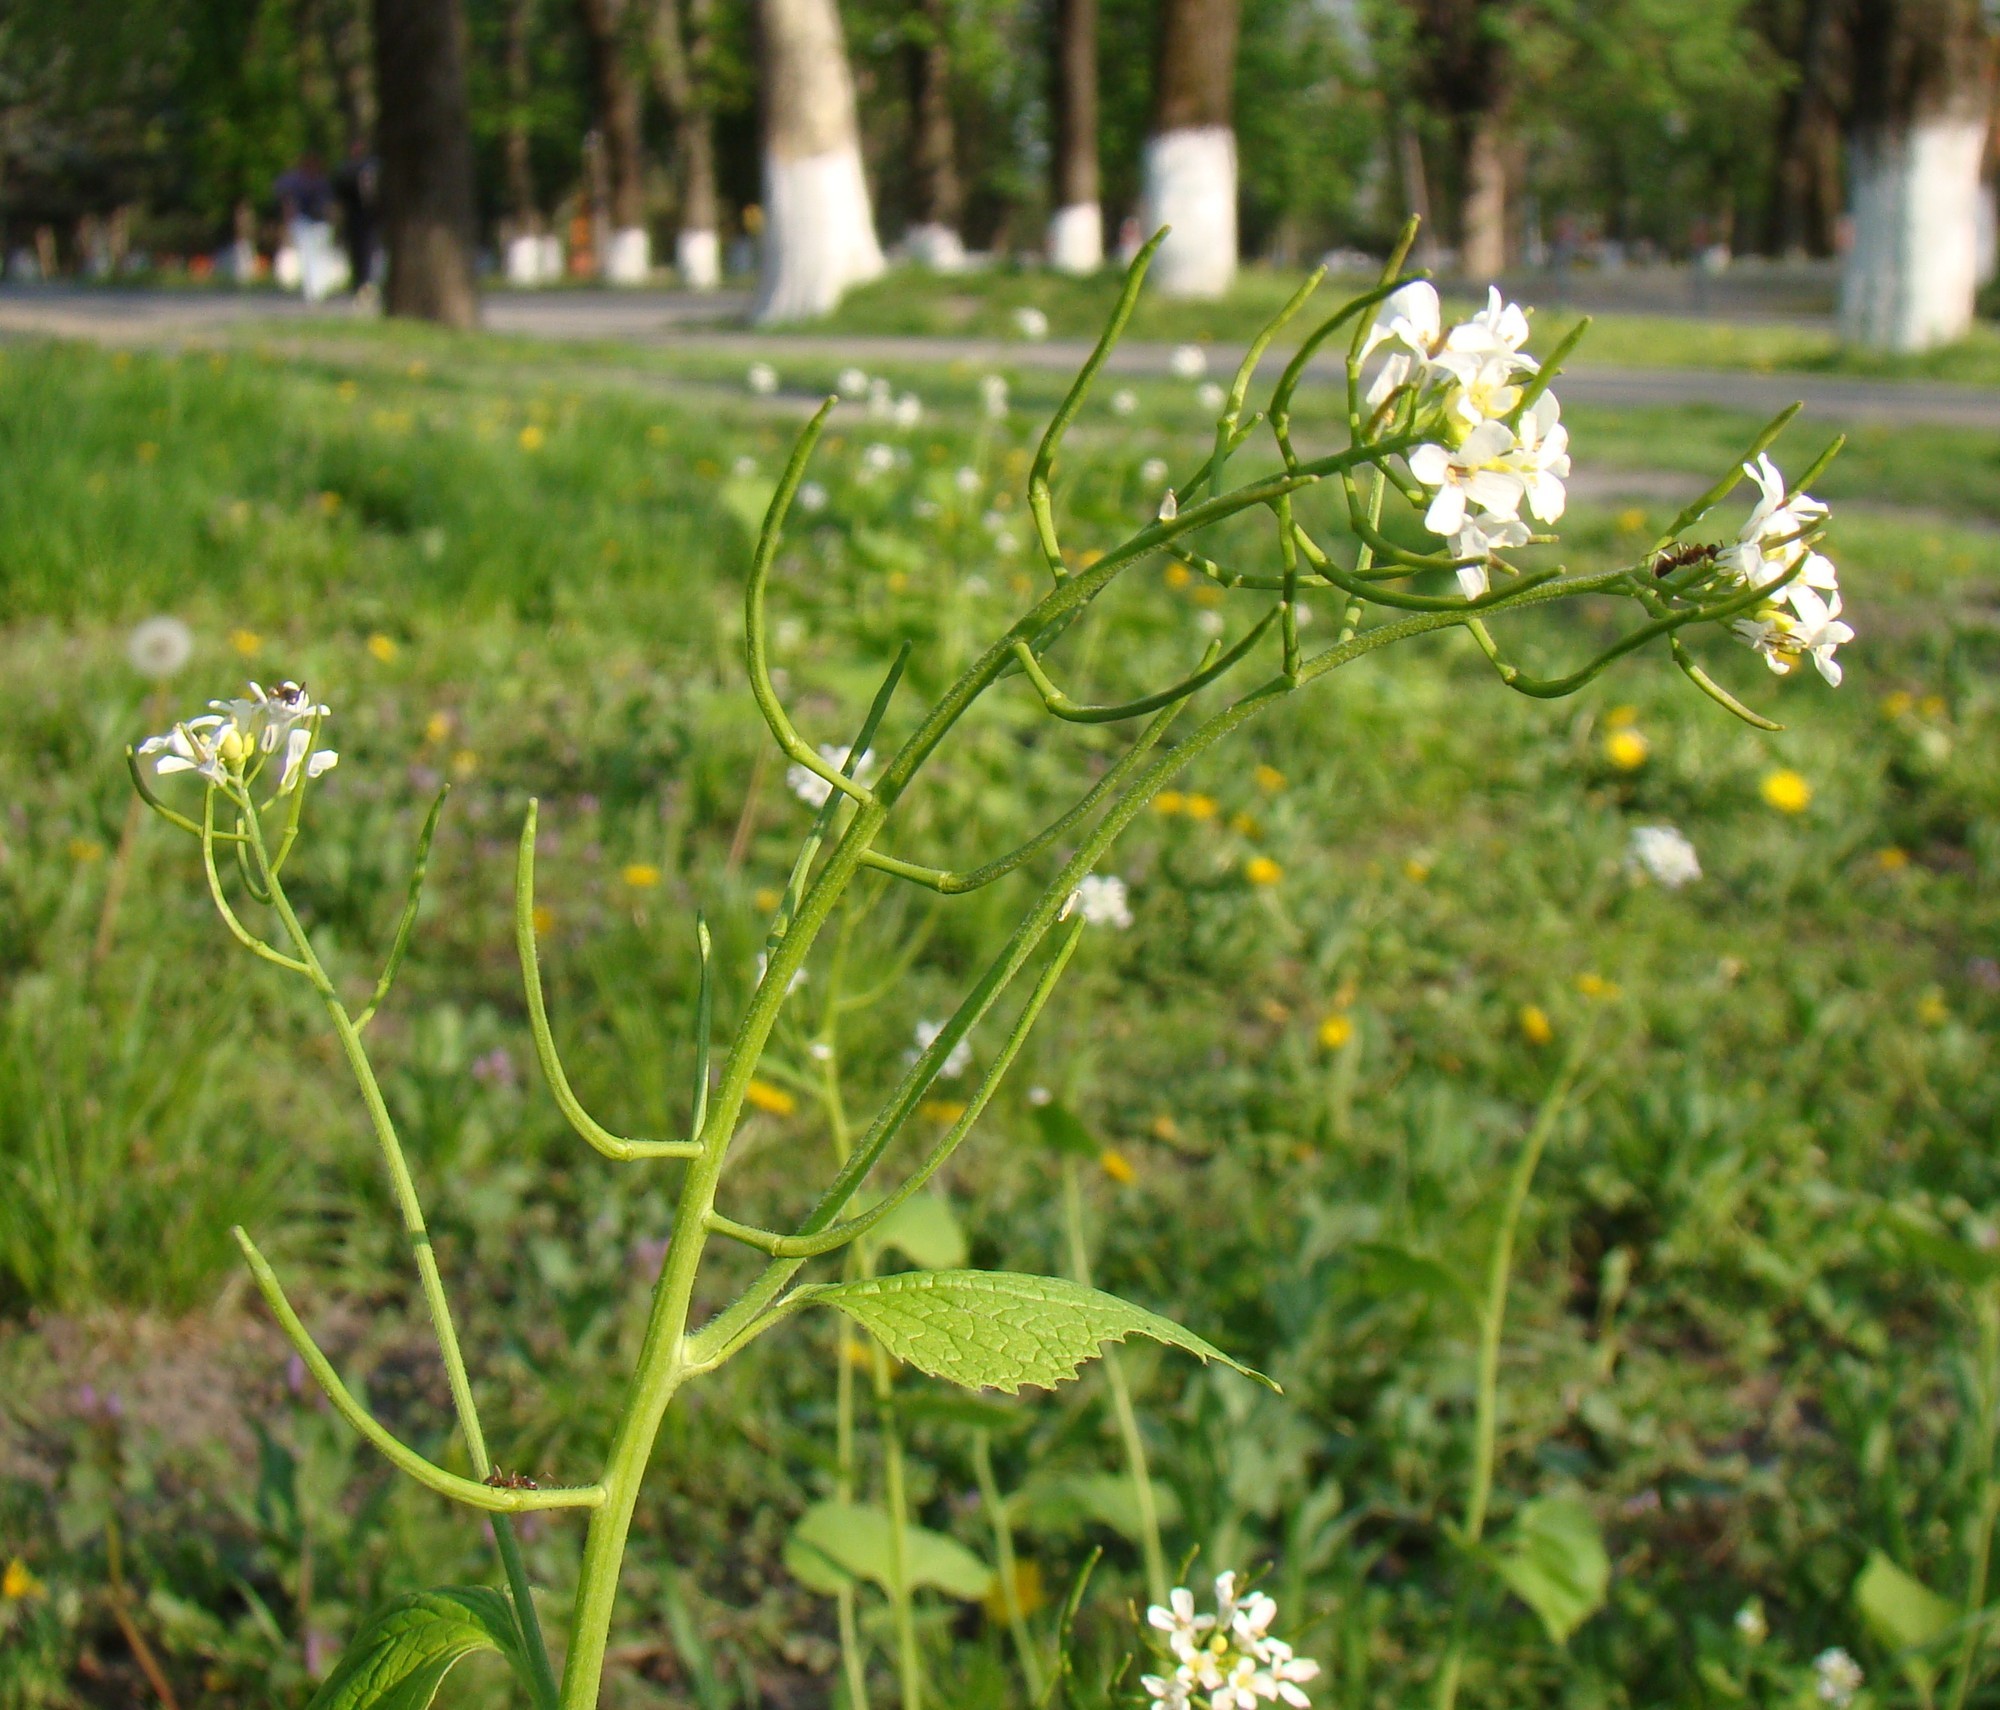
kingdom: Plantae
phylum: Tracheophyta
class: Magnoliopsida
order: Brassicales
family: Brassicaceae
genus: Alliaria
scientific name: Alliaria petiolata
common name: Garlic mustard
